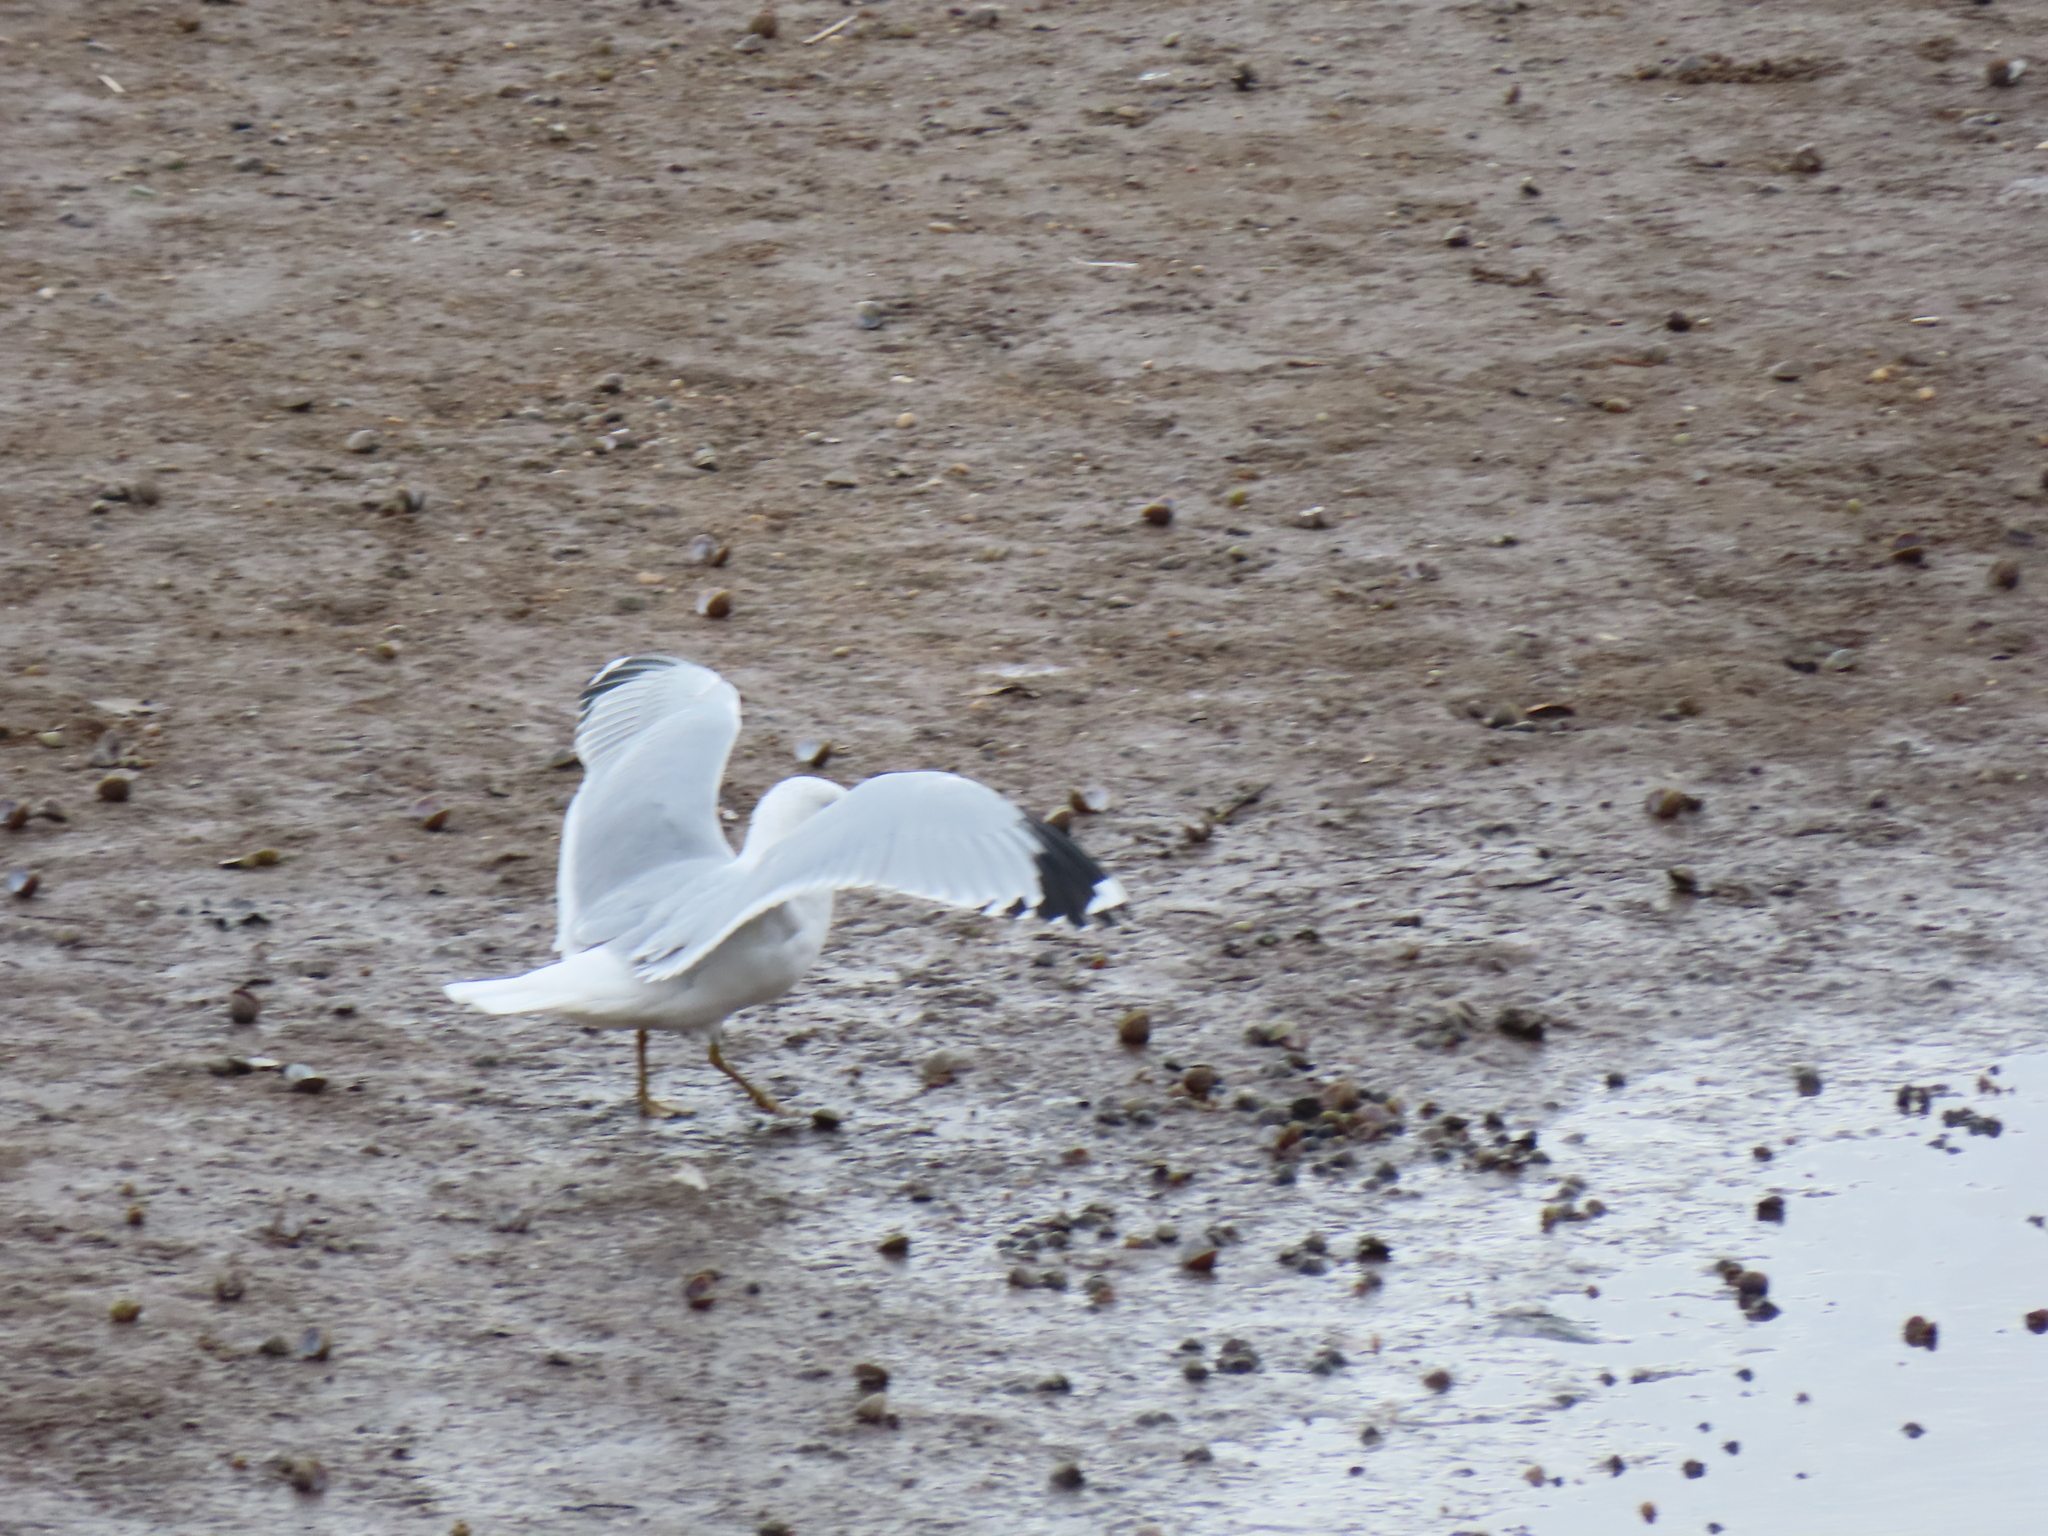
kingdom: Animalia
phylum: Chordata
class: Aves
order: Charadriiformes
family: Laridae
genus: Larus
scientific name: Larus delawarensis
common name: Ring-billed gull
